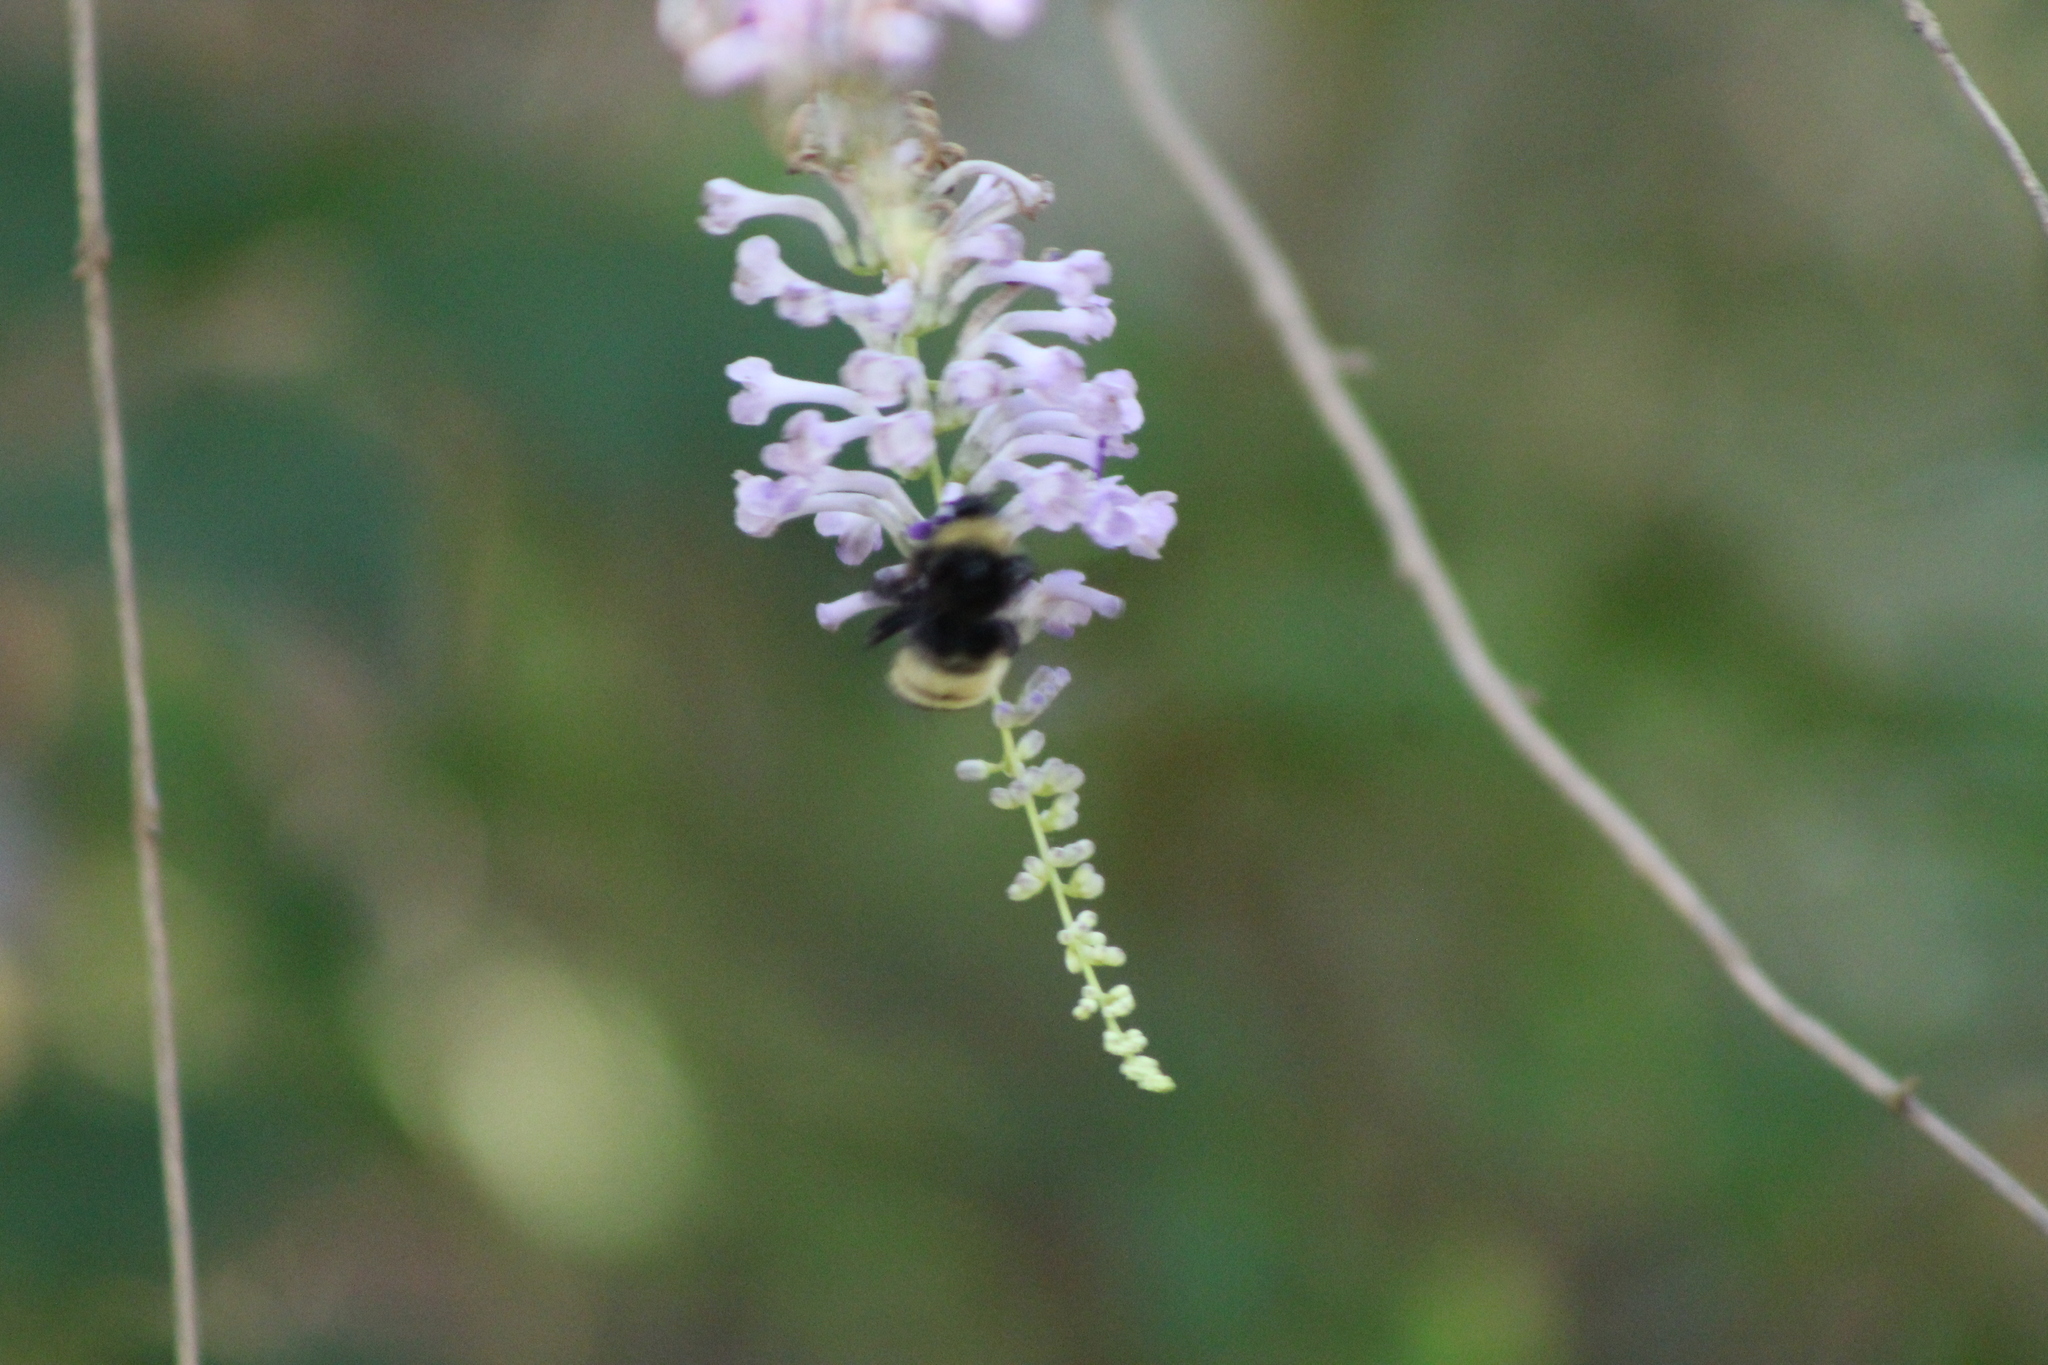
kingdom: Animalia
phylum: Arthropoda
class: Insecta
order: Hymenoptera
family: Apidae
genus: Bombus
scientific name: Bombus pensylvanicus
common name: Bumble bee
